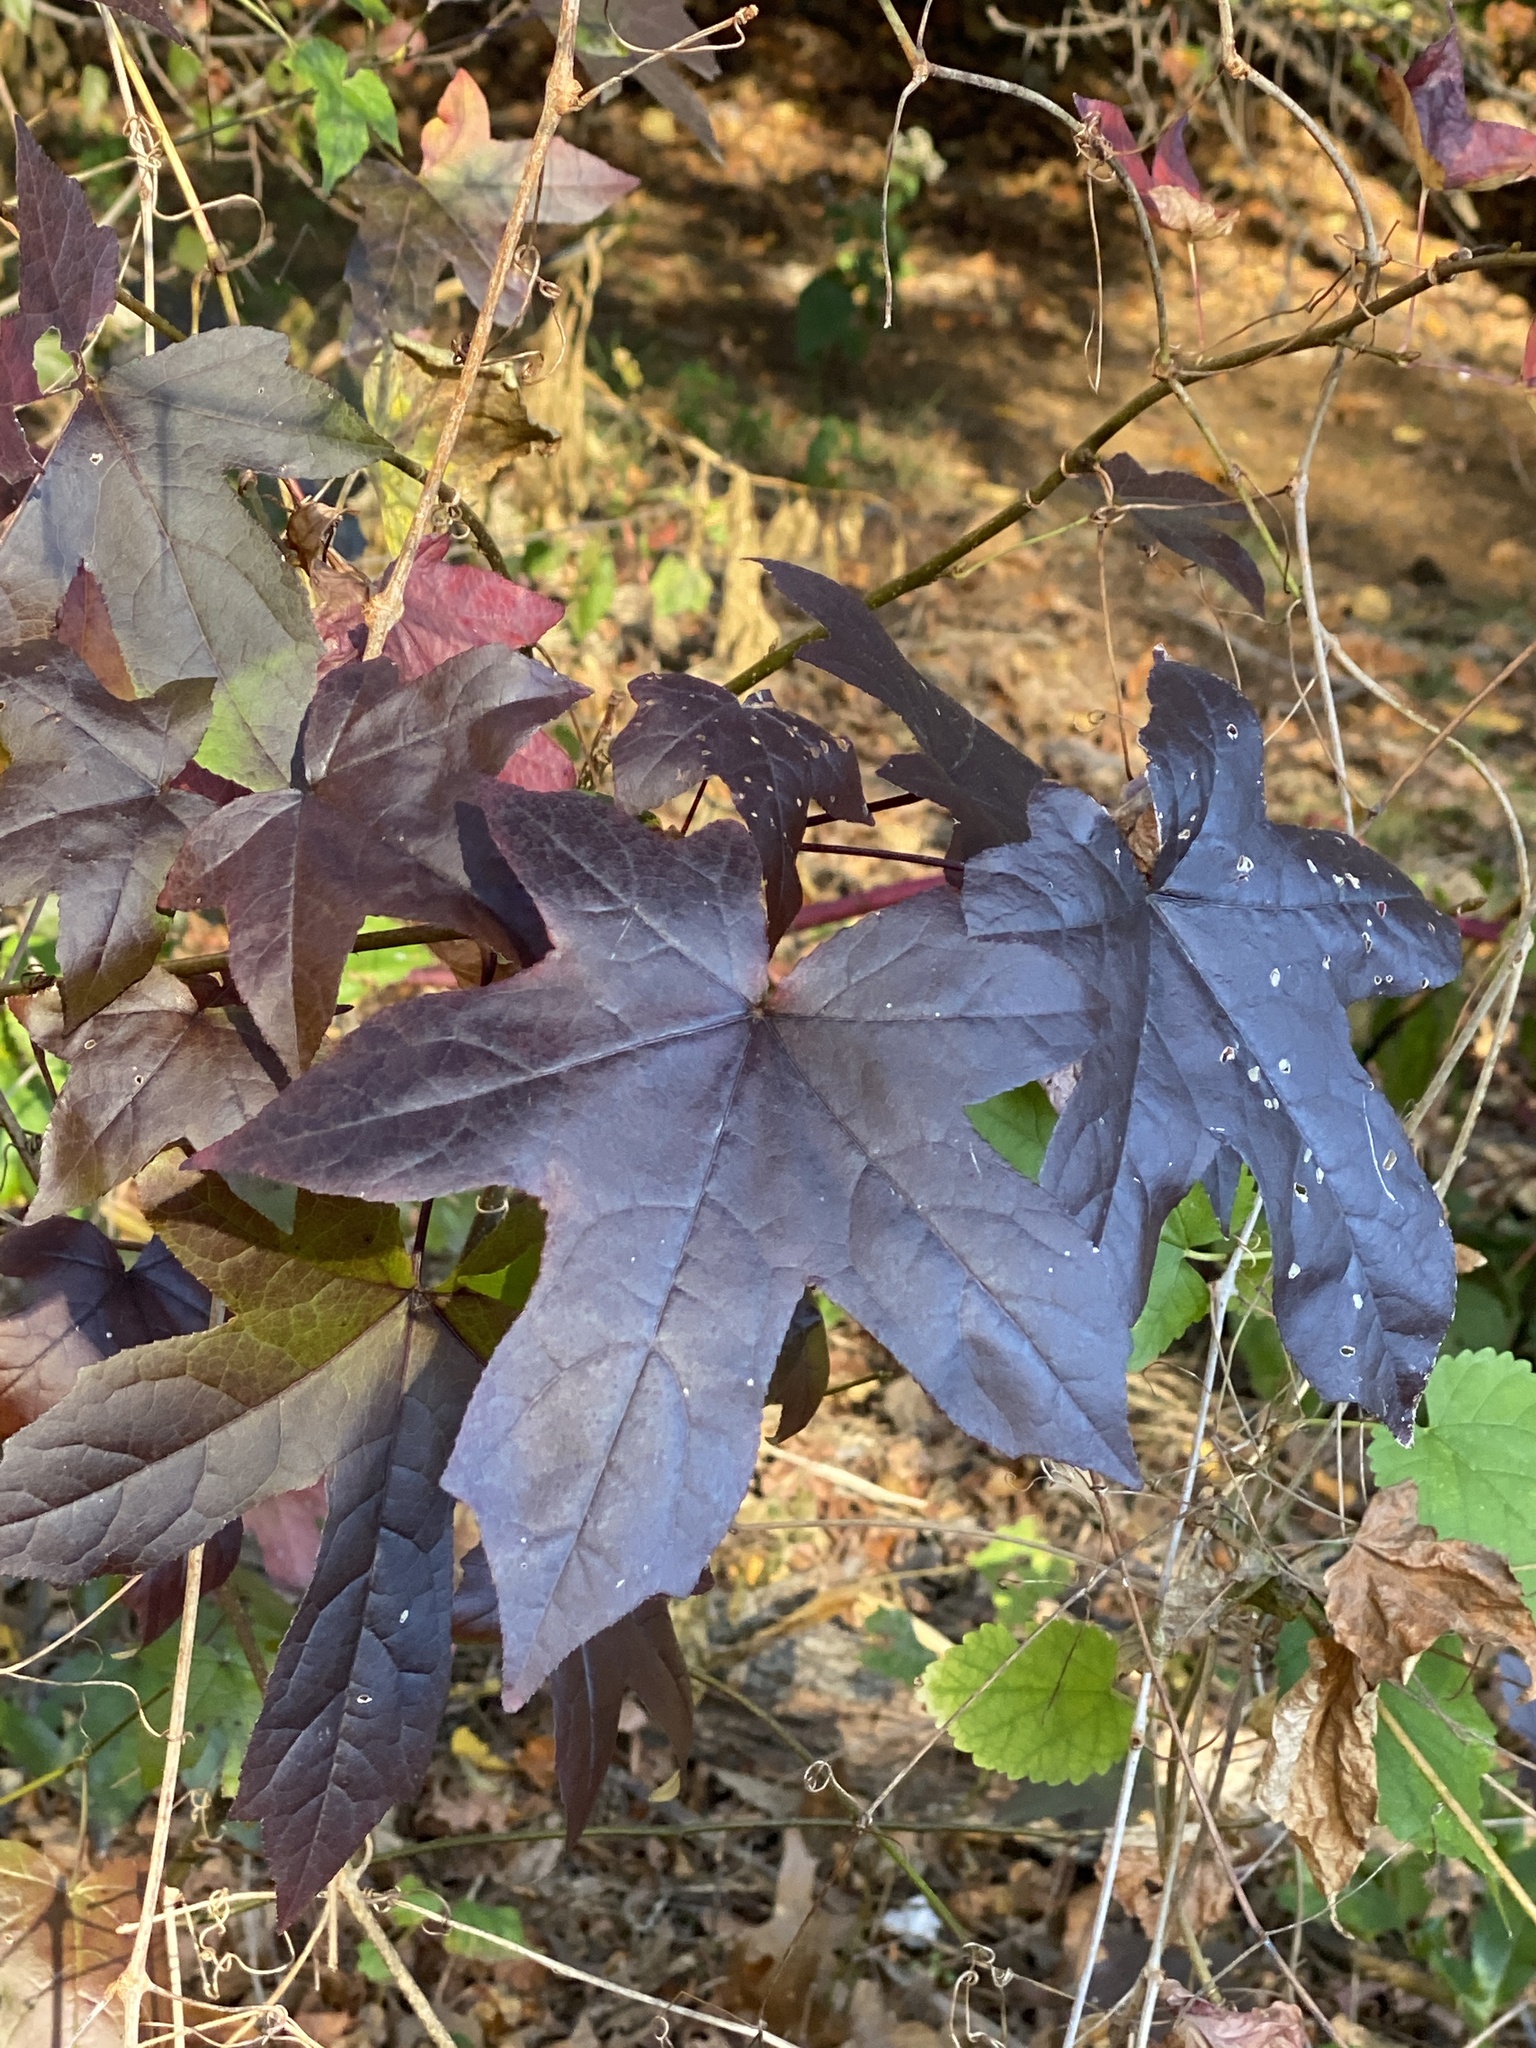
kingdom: Plantae
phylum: Tracheophyta
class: Magnoliopsida
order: Saxifragales
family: Altingiaceae
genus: Liquidambar
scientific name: Liquidambar styraciflua
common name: Sweet gum
